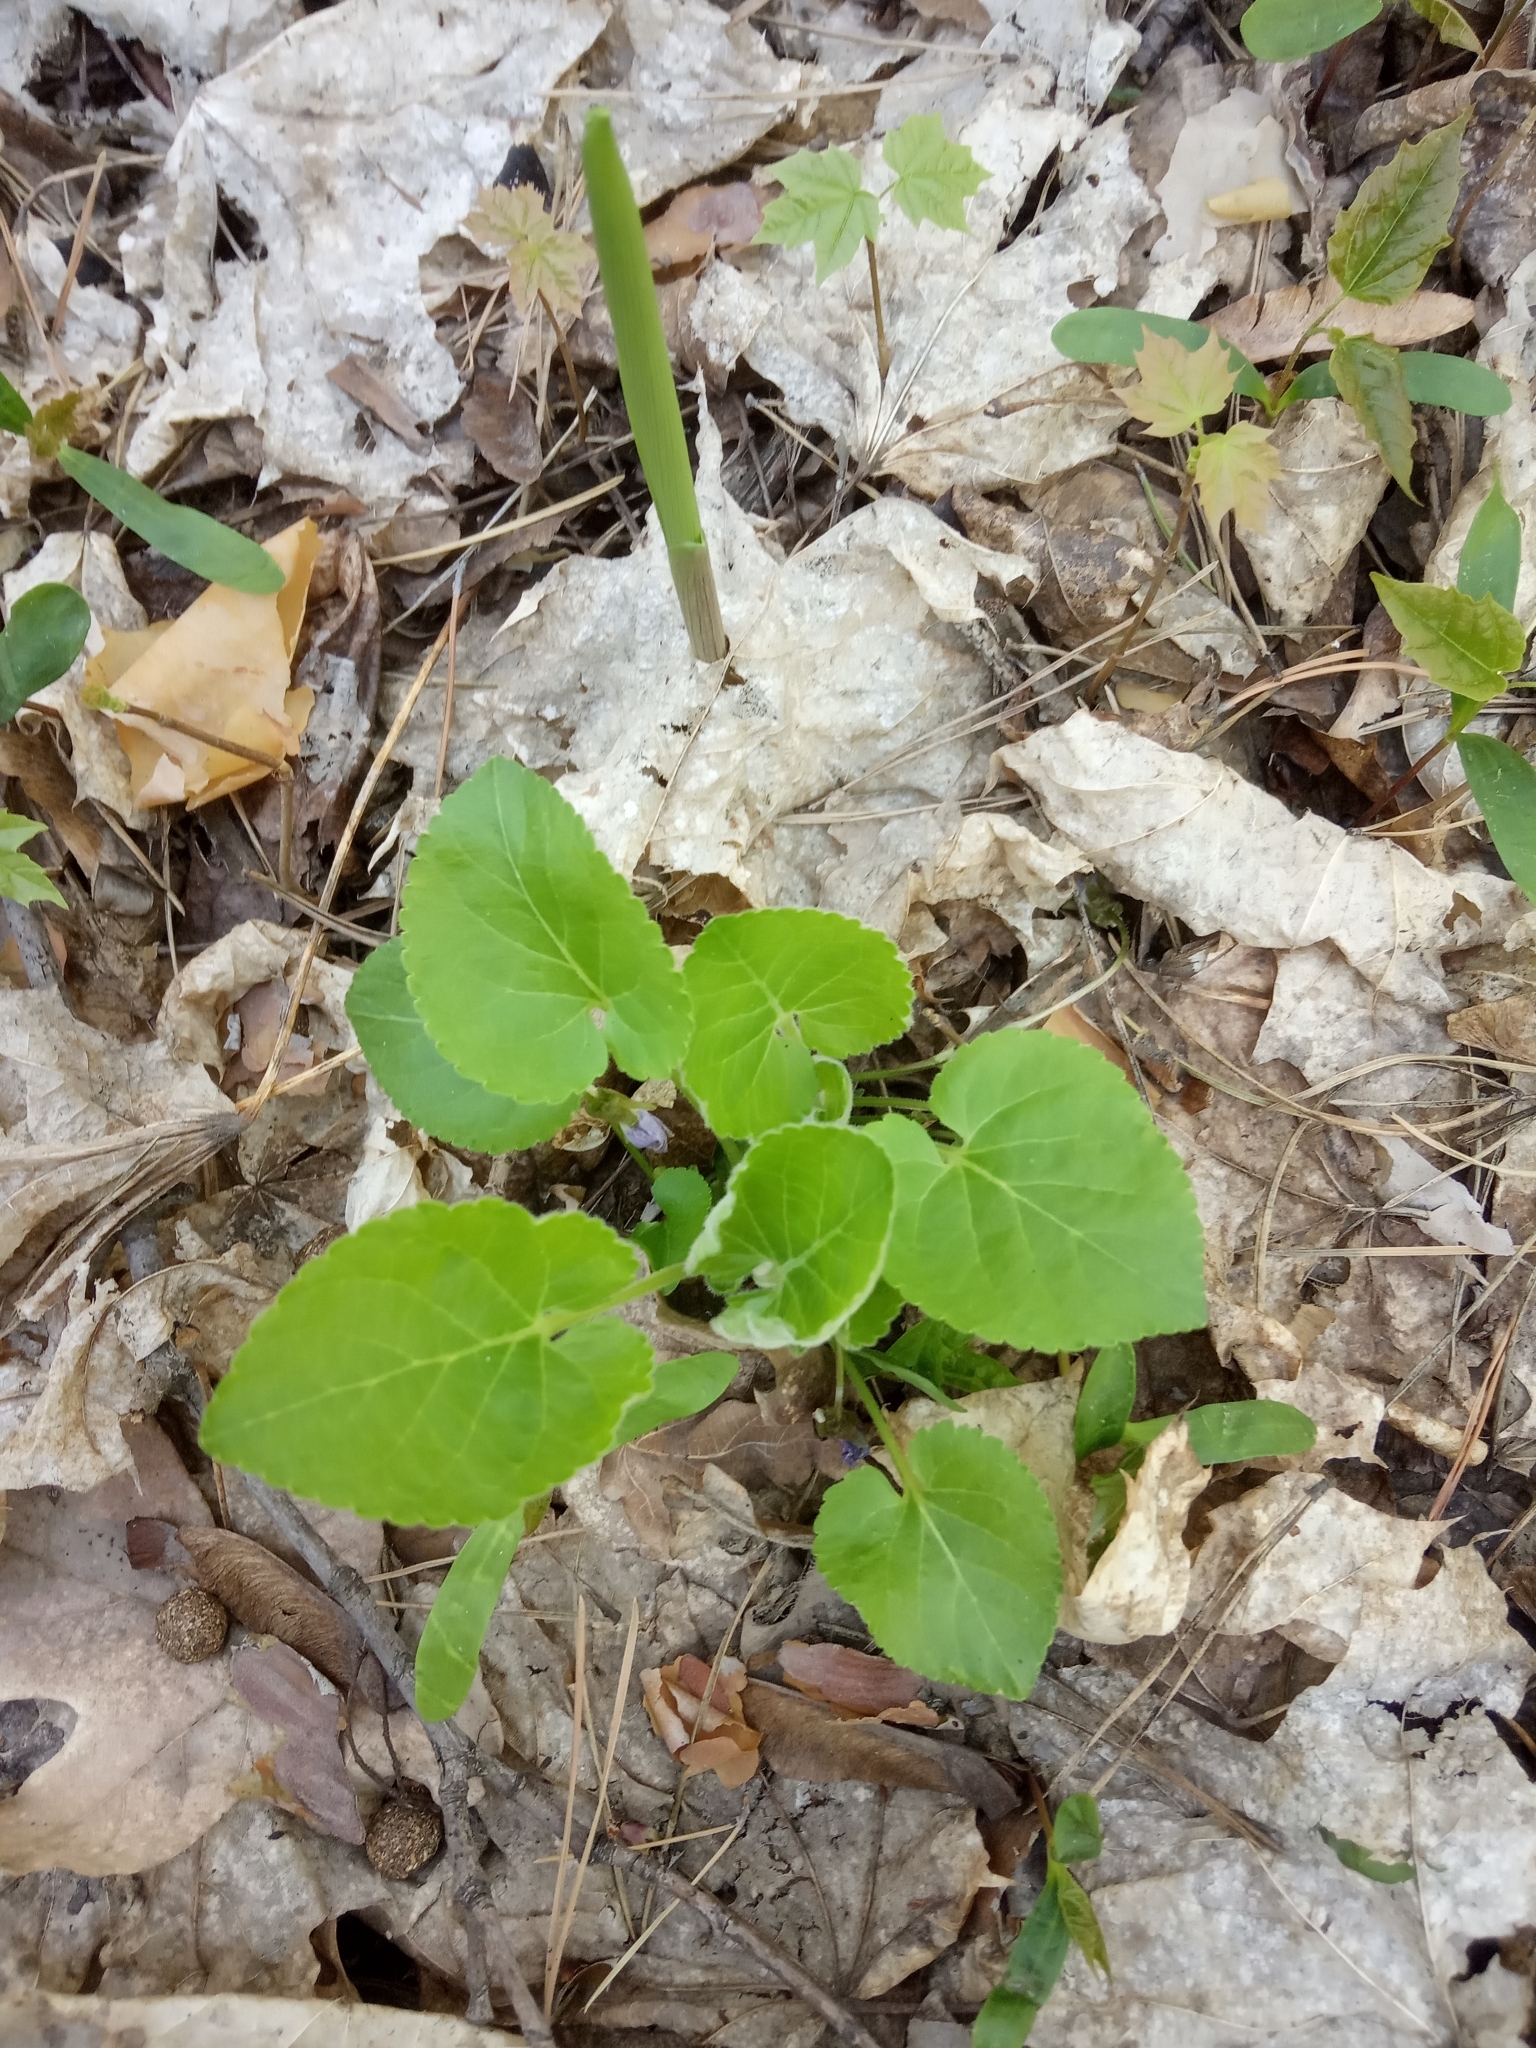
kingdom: Plantae
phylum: Tracheophyta
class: Magnoliopsida
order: Malpighiales
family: Violaceae
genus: Viola
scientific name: Viola collina
